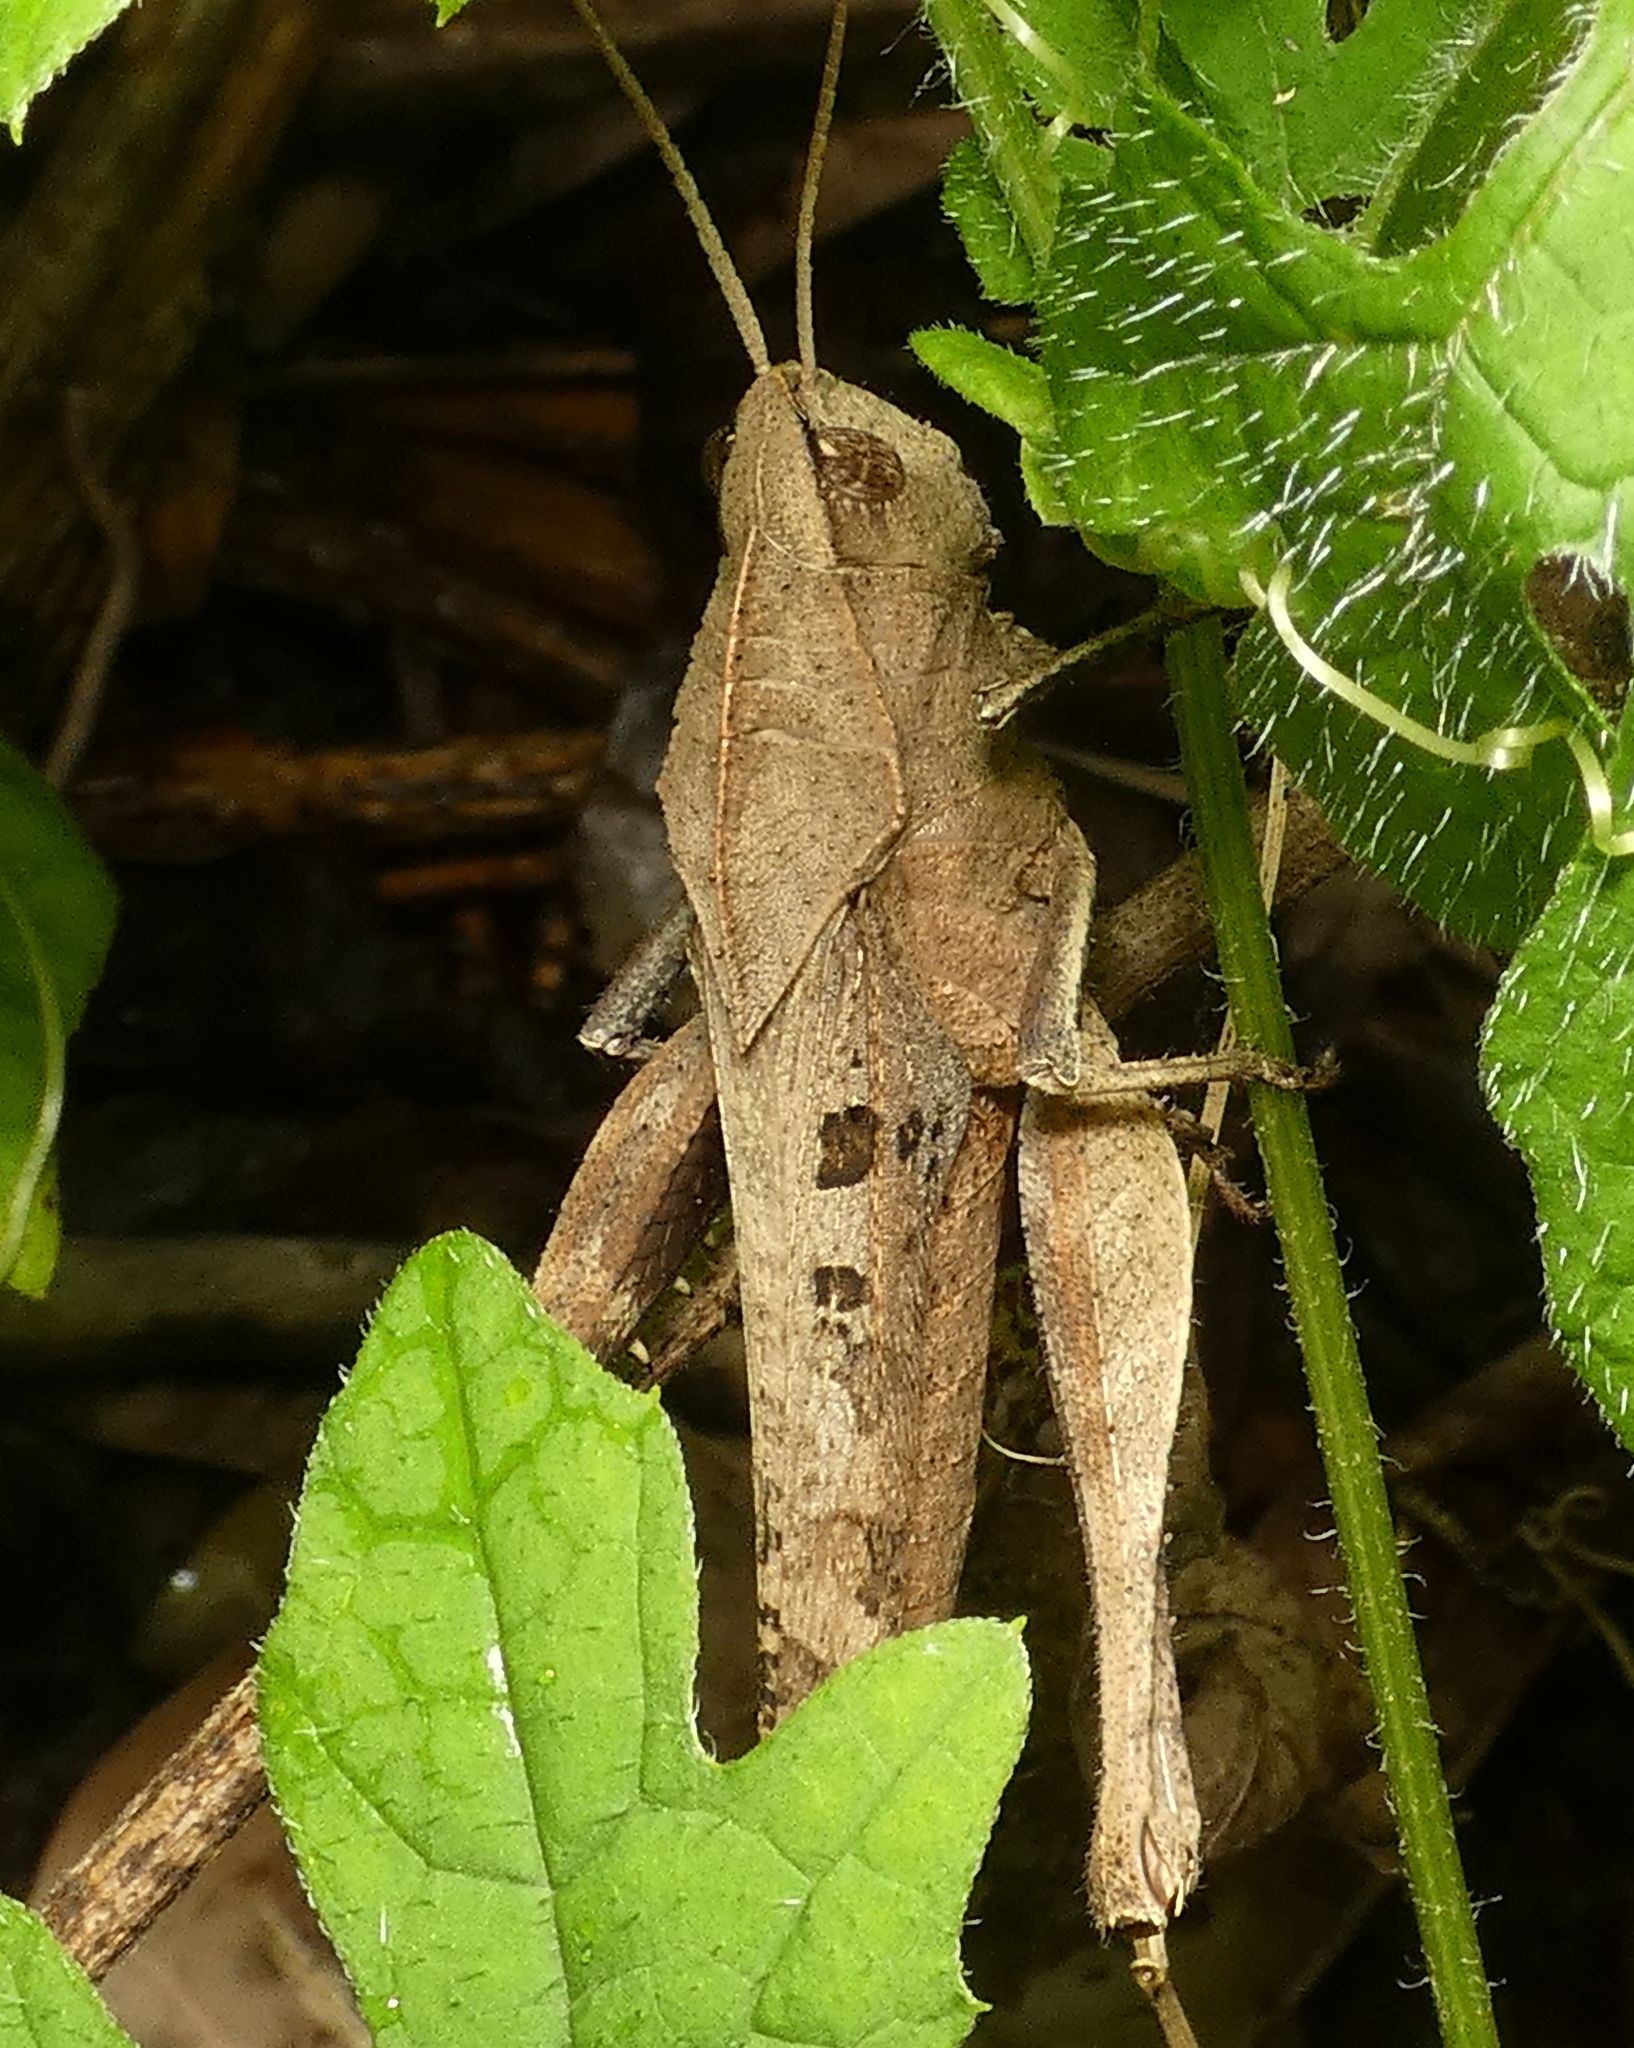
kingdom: Animalia
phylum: Arthropoda
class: Insecta
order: Orthoptera
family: Romaleidae
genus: Xyleus
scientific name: Xyleus discoideus
